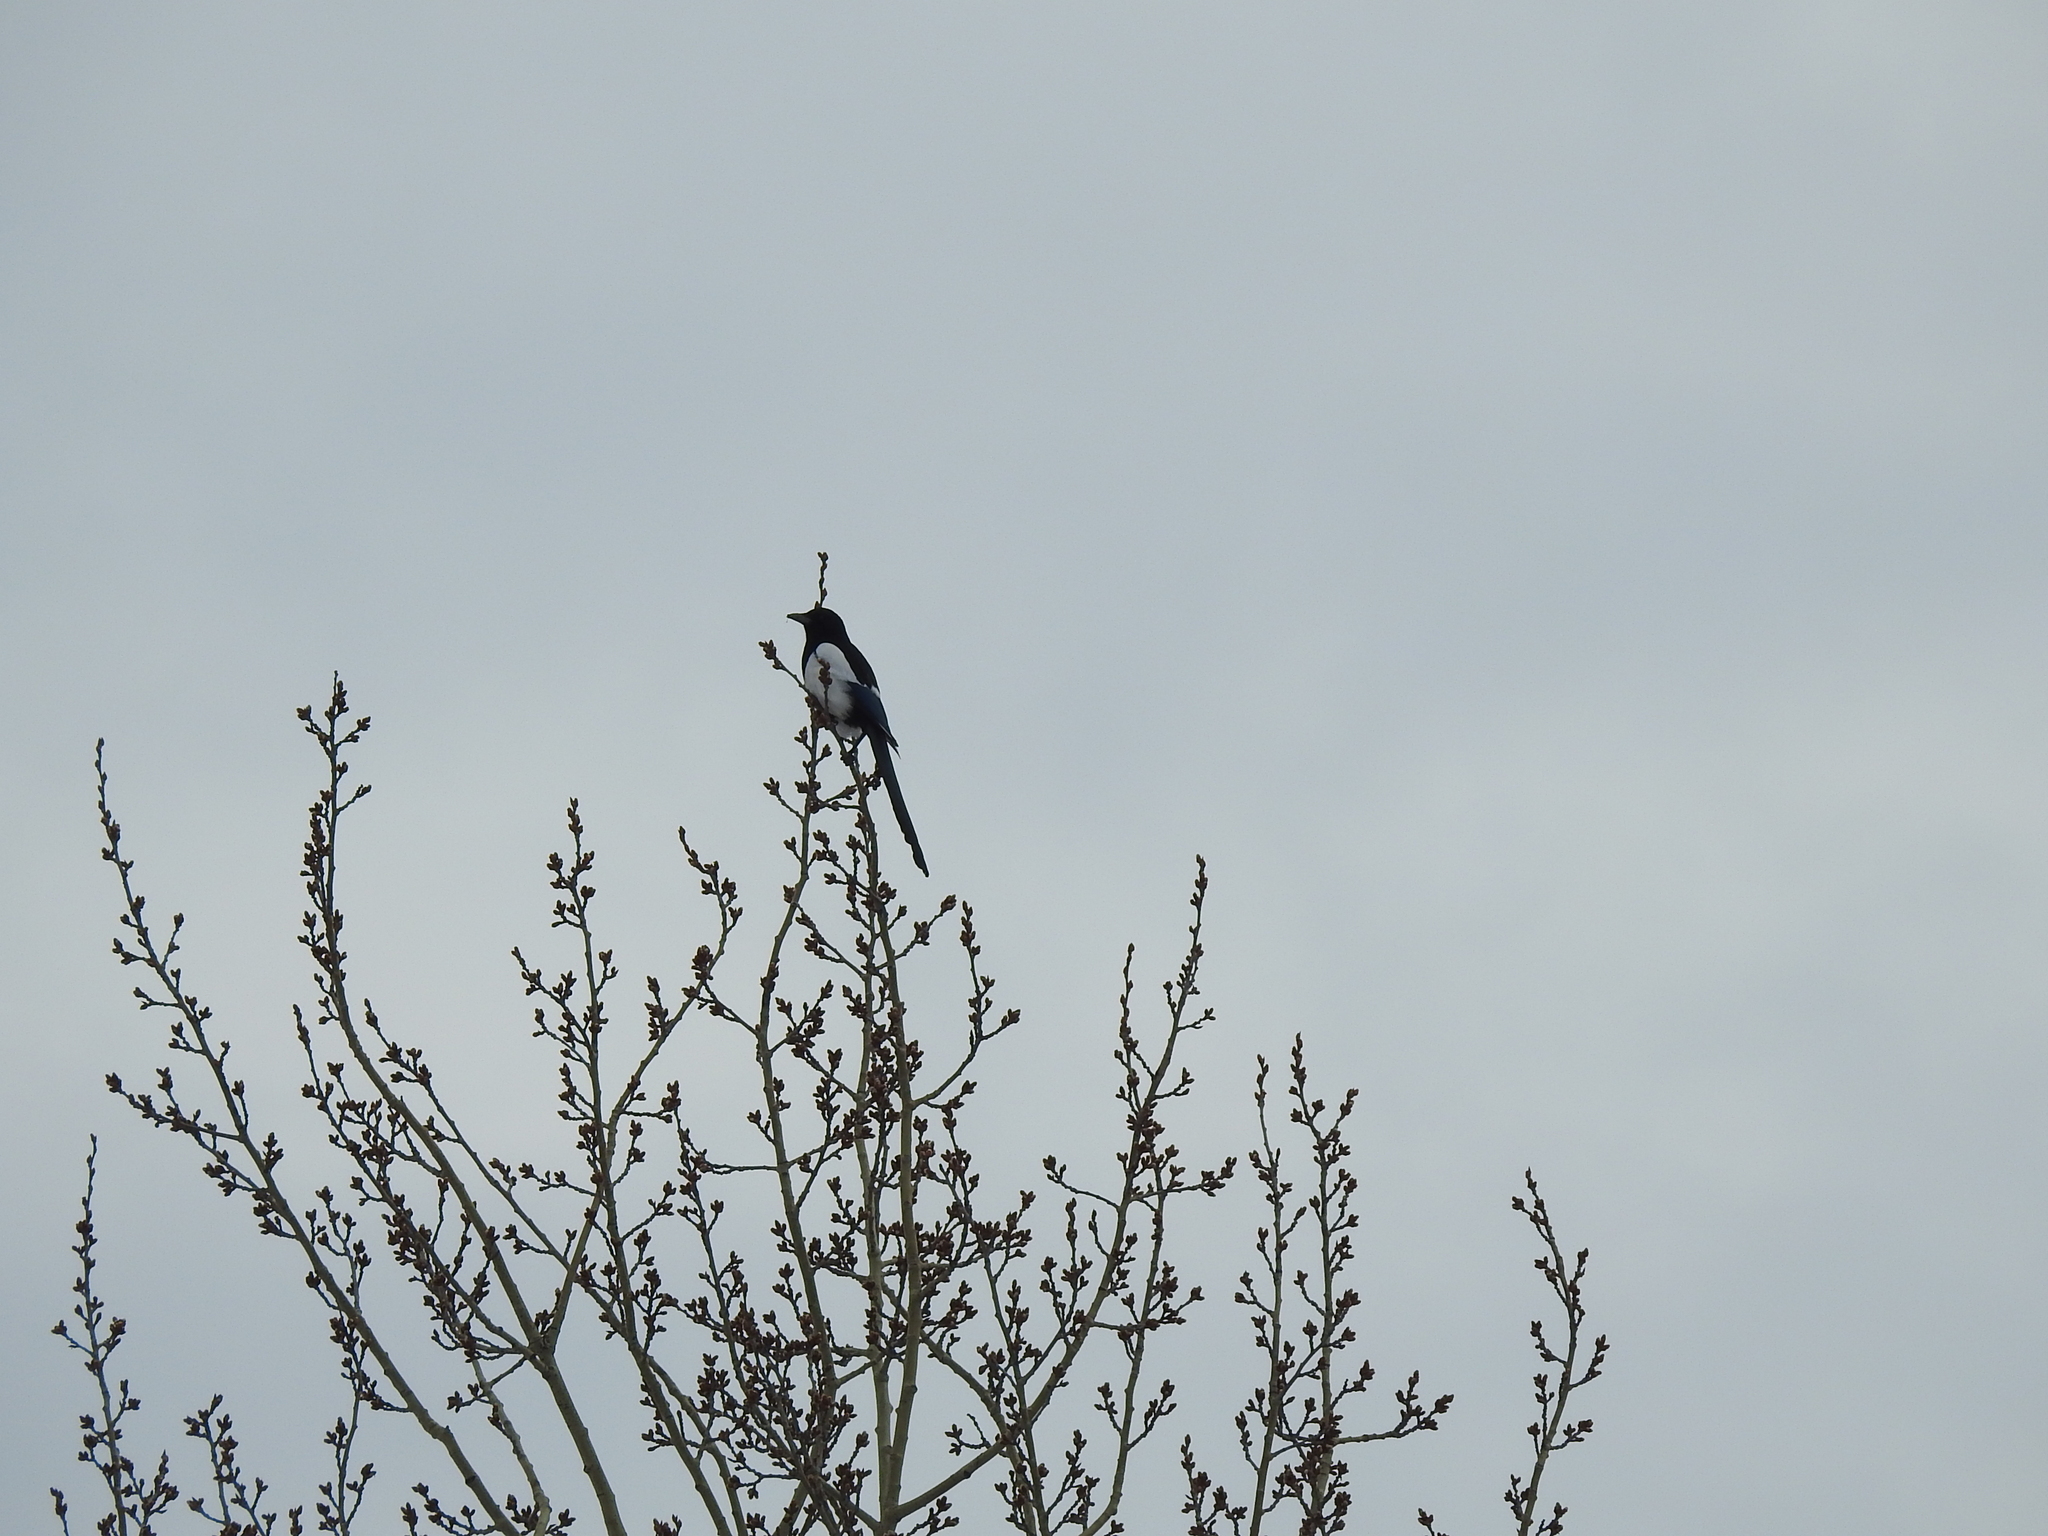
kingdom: Animalia
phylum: Chordata
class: Aves
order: Passeriformes
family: Corvidae
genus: Pica
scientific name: Pica pica
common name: Eurasian magpie
